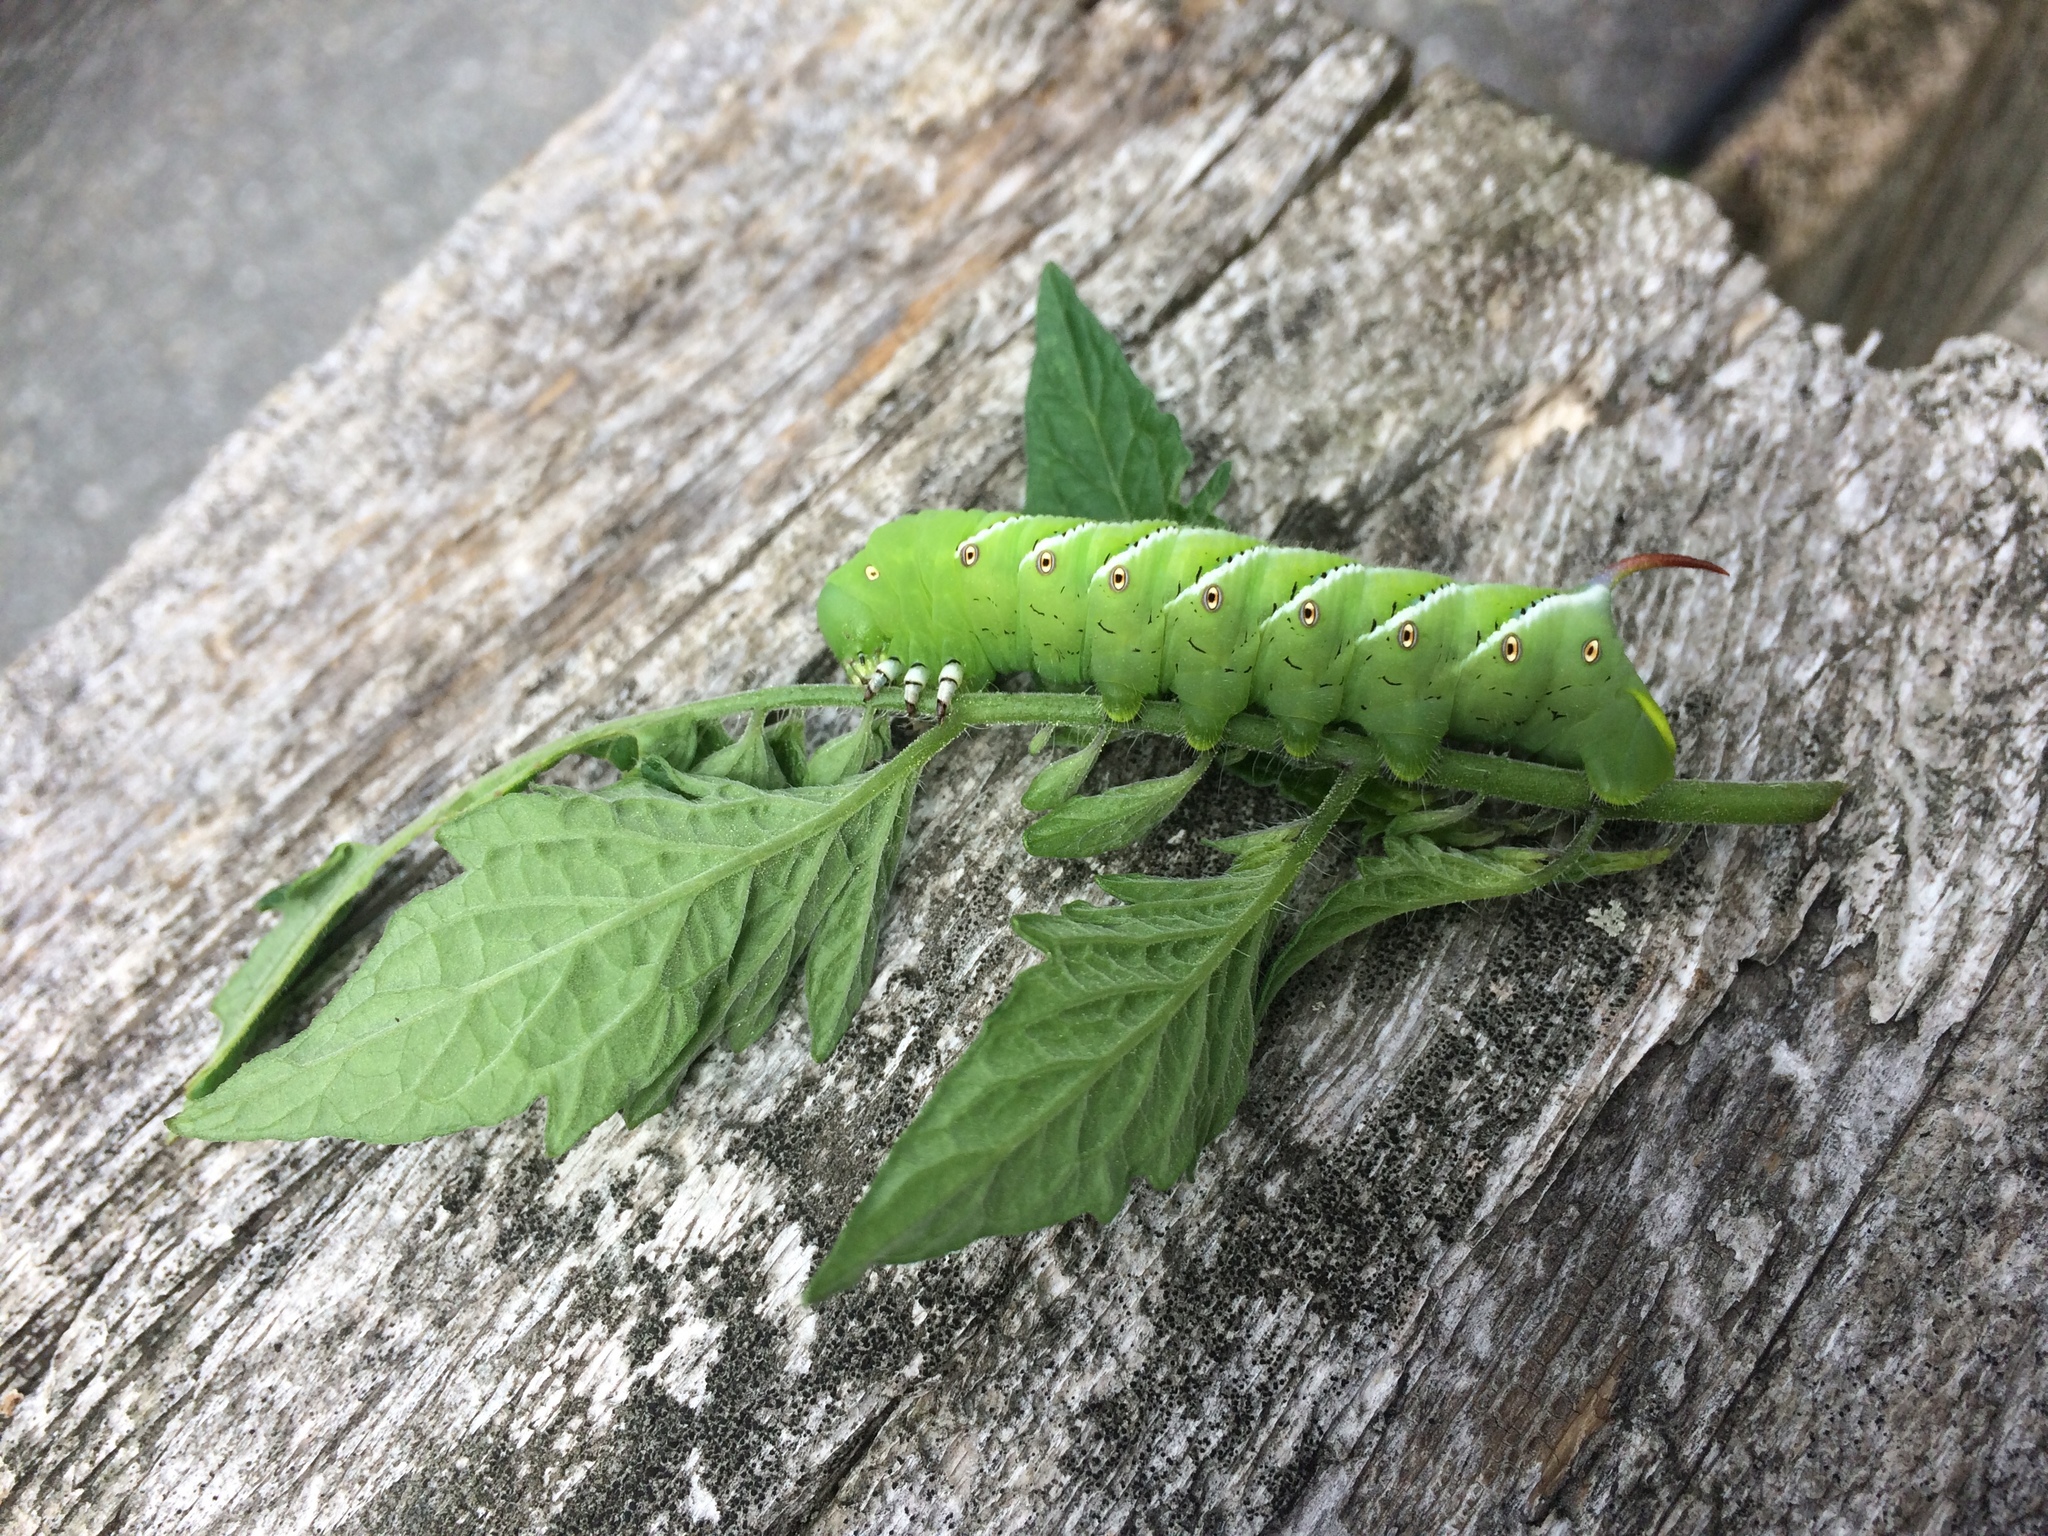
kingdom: Animalia
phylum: Arthropoda
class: Insecta
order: Lepidoptera
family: Sphingidae
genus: Manduca
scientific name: Manduca sexta
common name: Carolina sphinx
